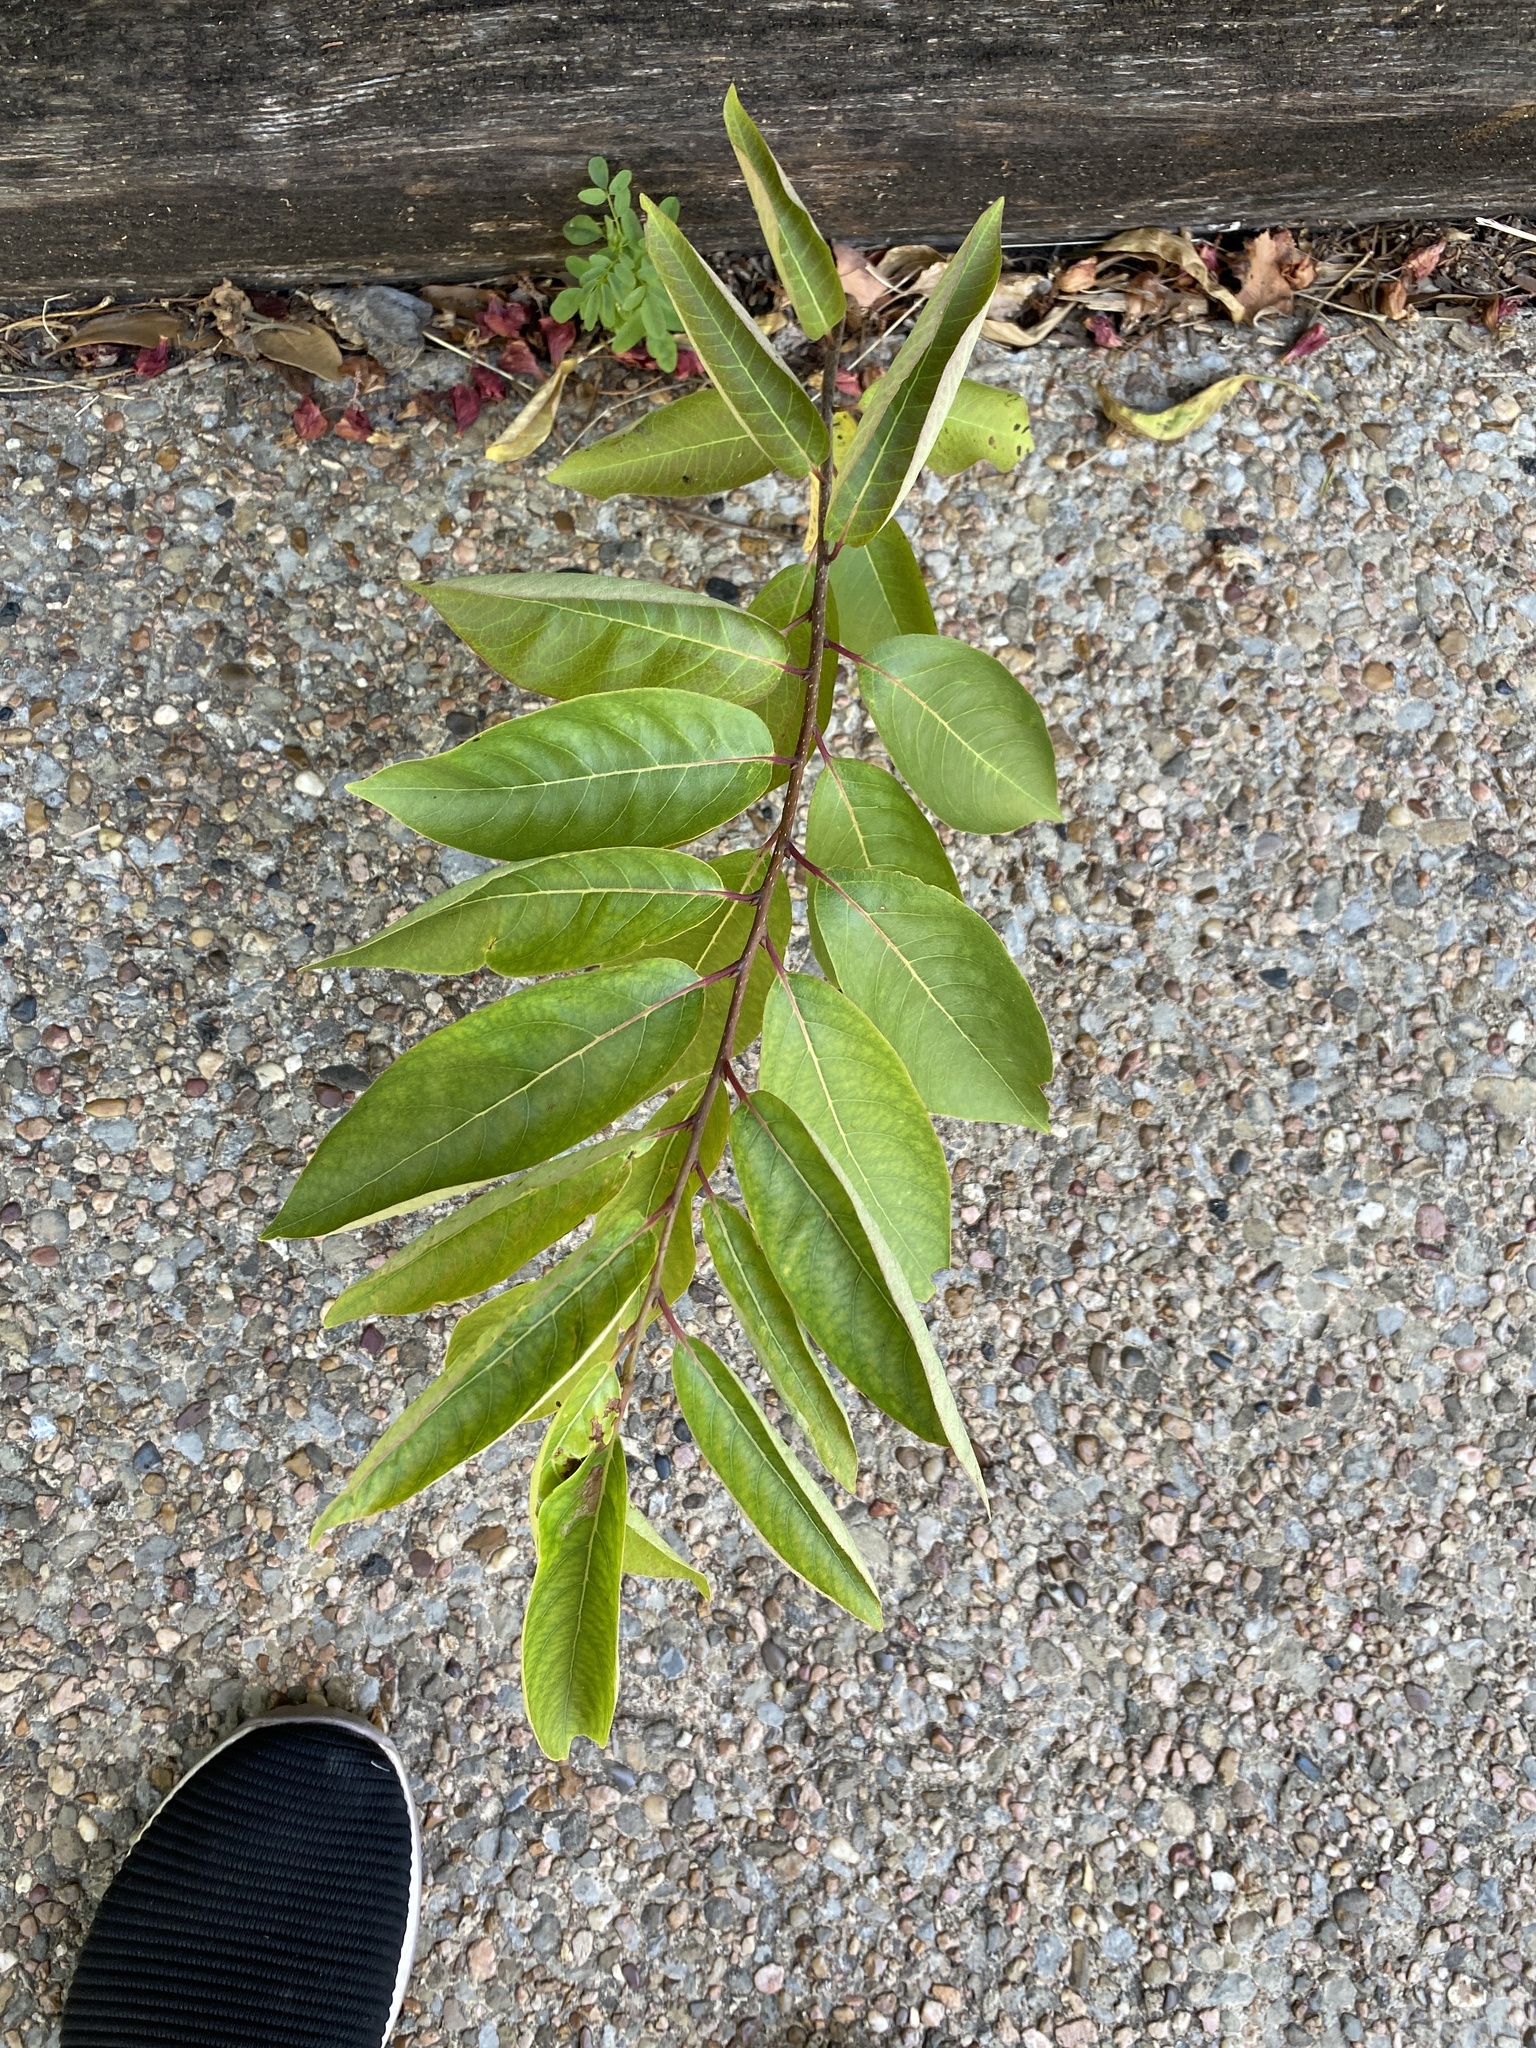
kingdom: Plantae
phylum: Tracheophyta
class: Magnoliopsida
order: Gentianales
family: Rubiaceae
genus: Cephalanthus
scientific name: Cephalanthus occidentalis
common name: Button-willow
